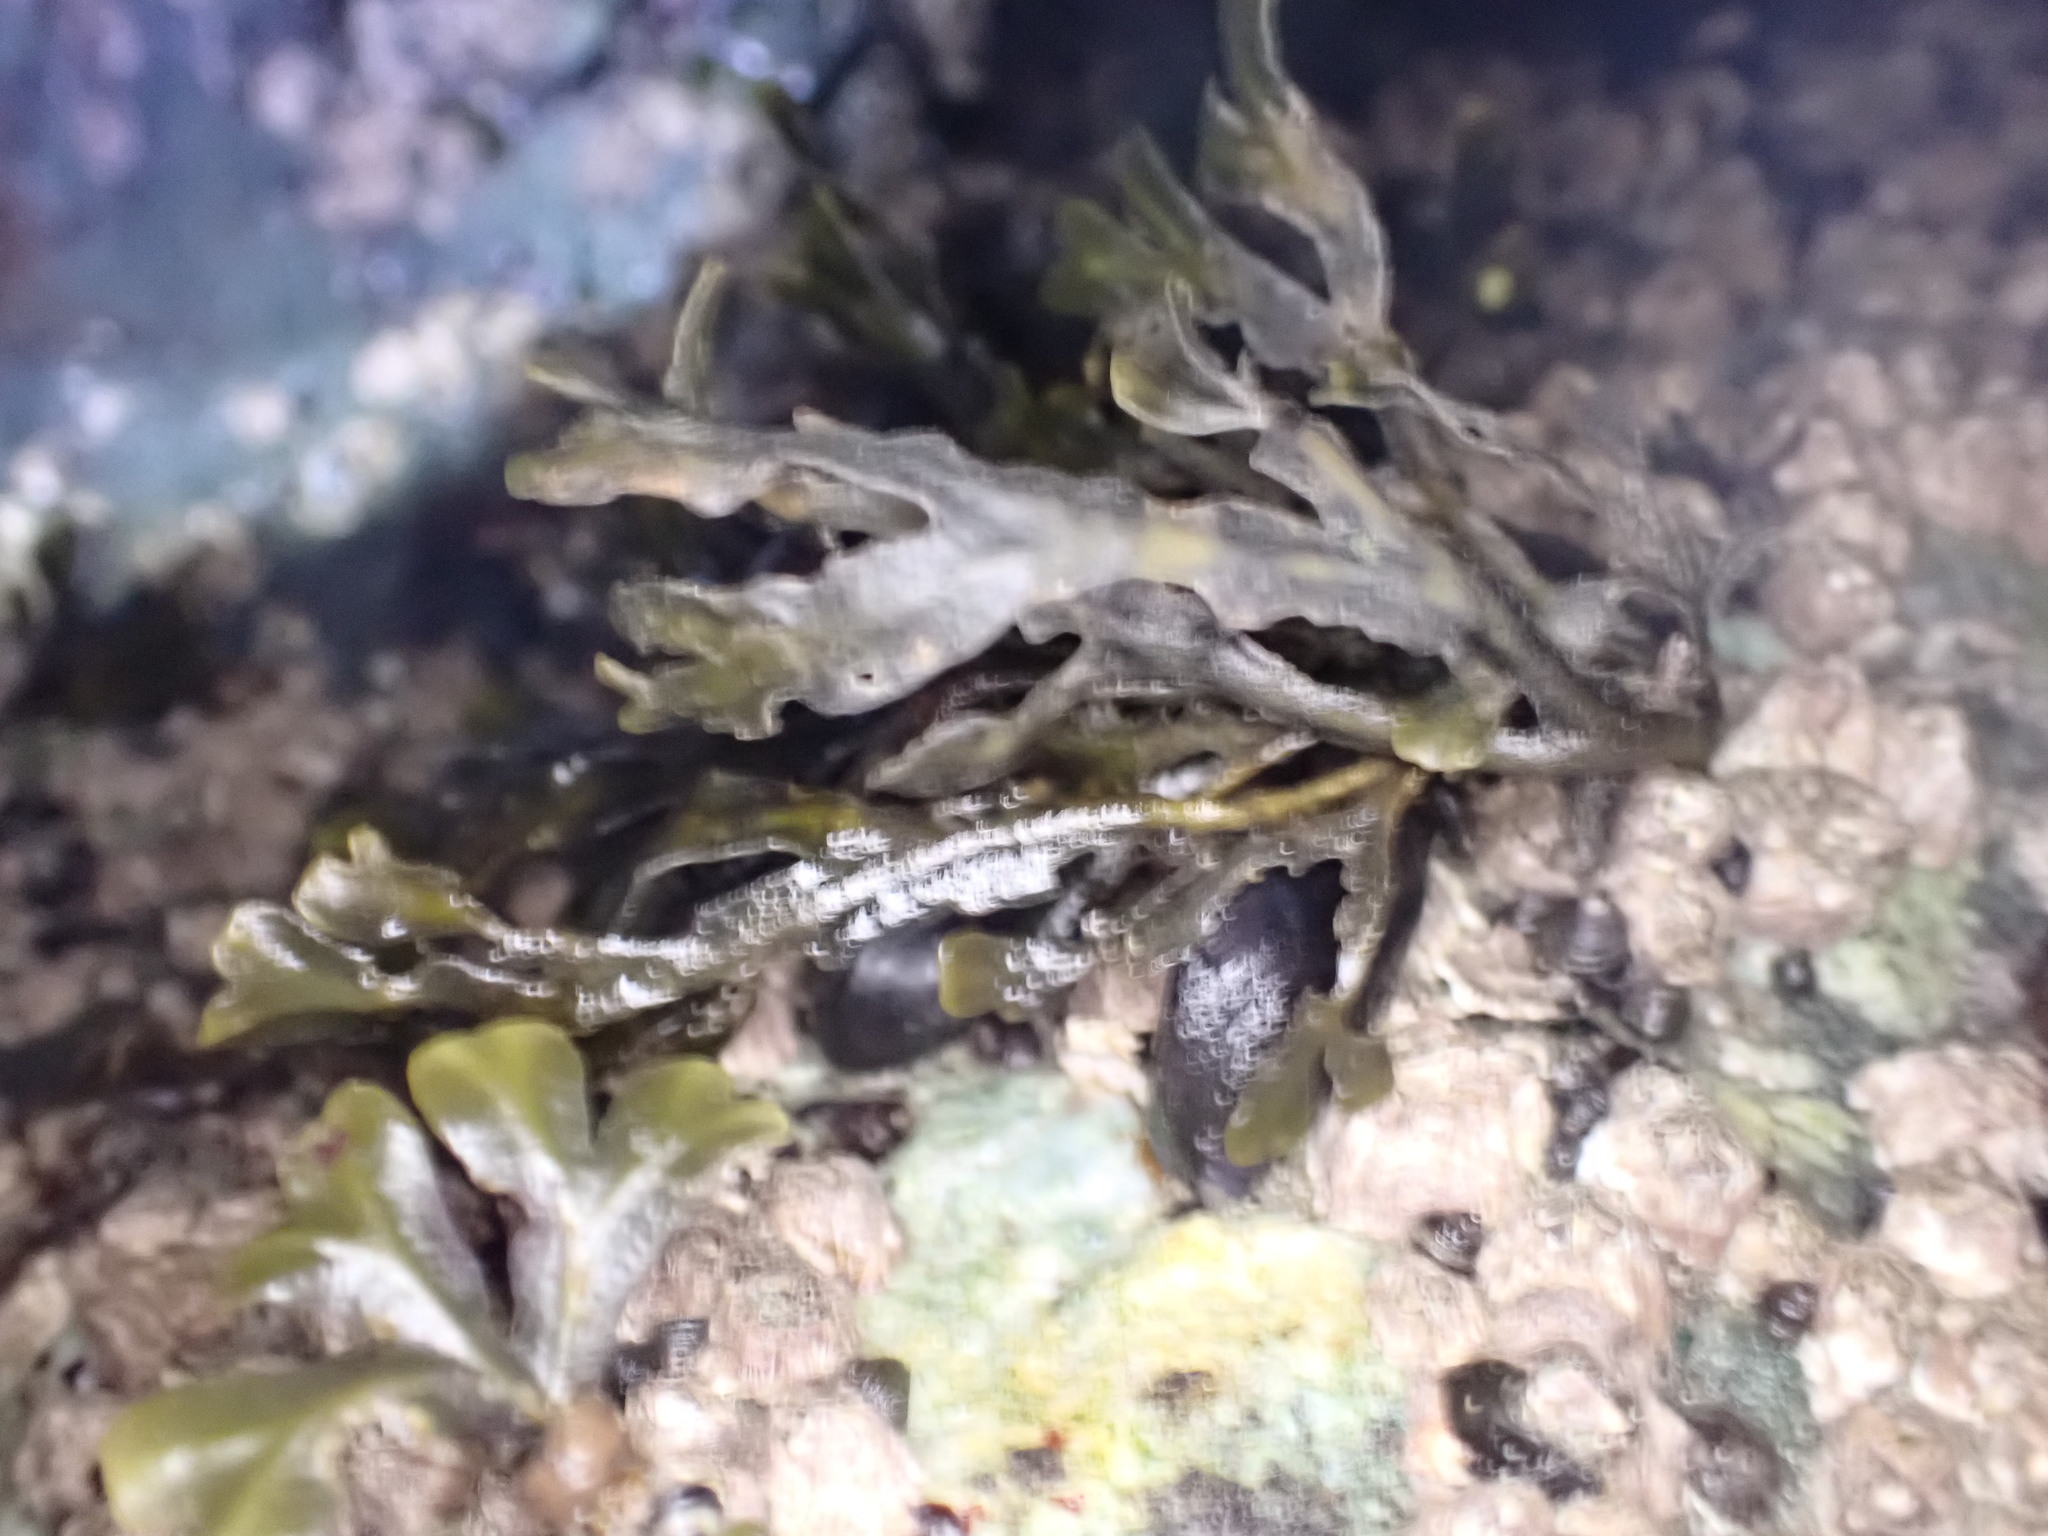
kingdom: Chromista
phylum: Ochrophyta
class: Phaeophyceae
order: Fucales
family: Fucaceae
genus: Fucus
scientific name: Fucus distichus
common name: Rockweed
